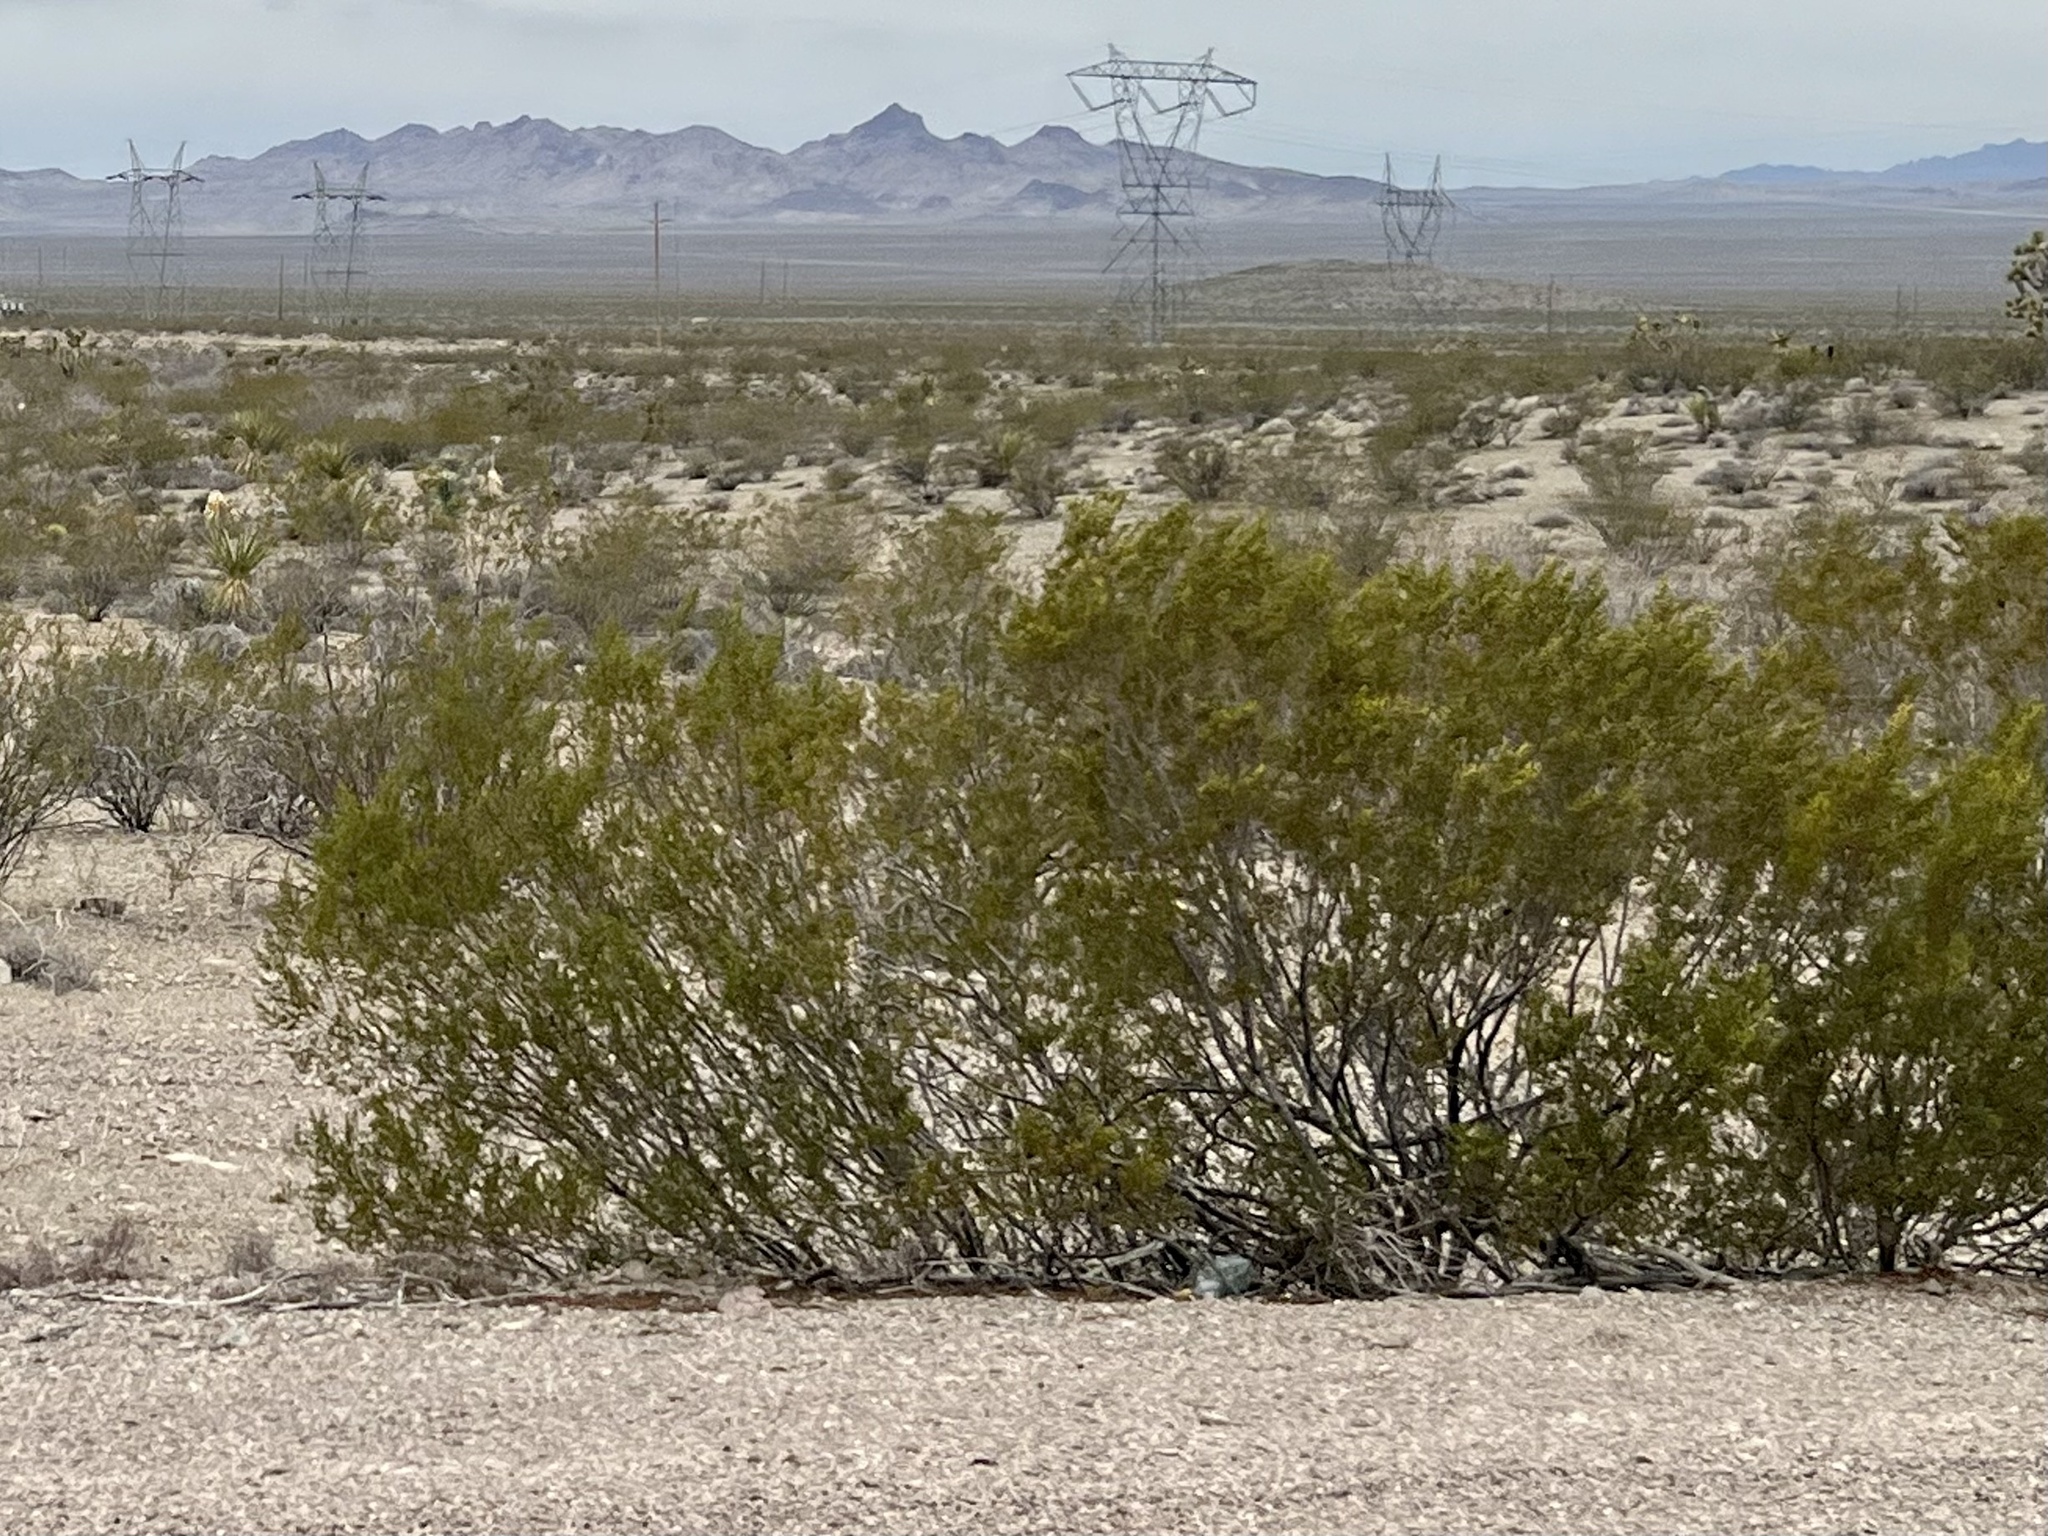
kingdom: Plantae
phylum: Tracheophyta
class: Magnoliopsida
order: Zygophyllales
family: Zygophyllaceae
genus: Larrea
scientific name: Larrea tridentata
